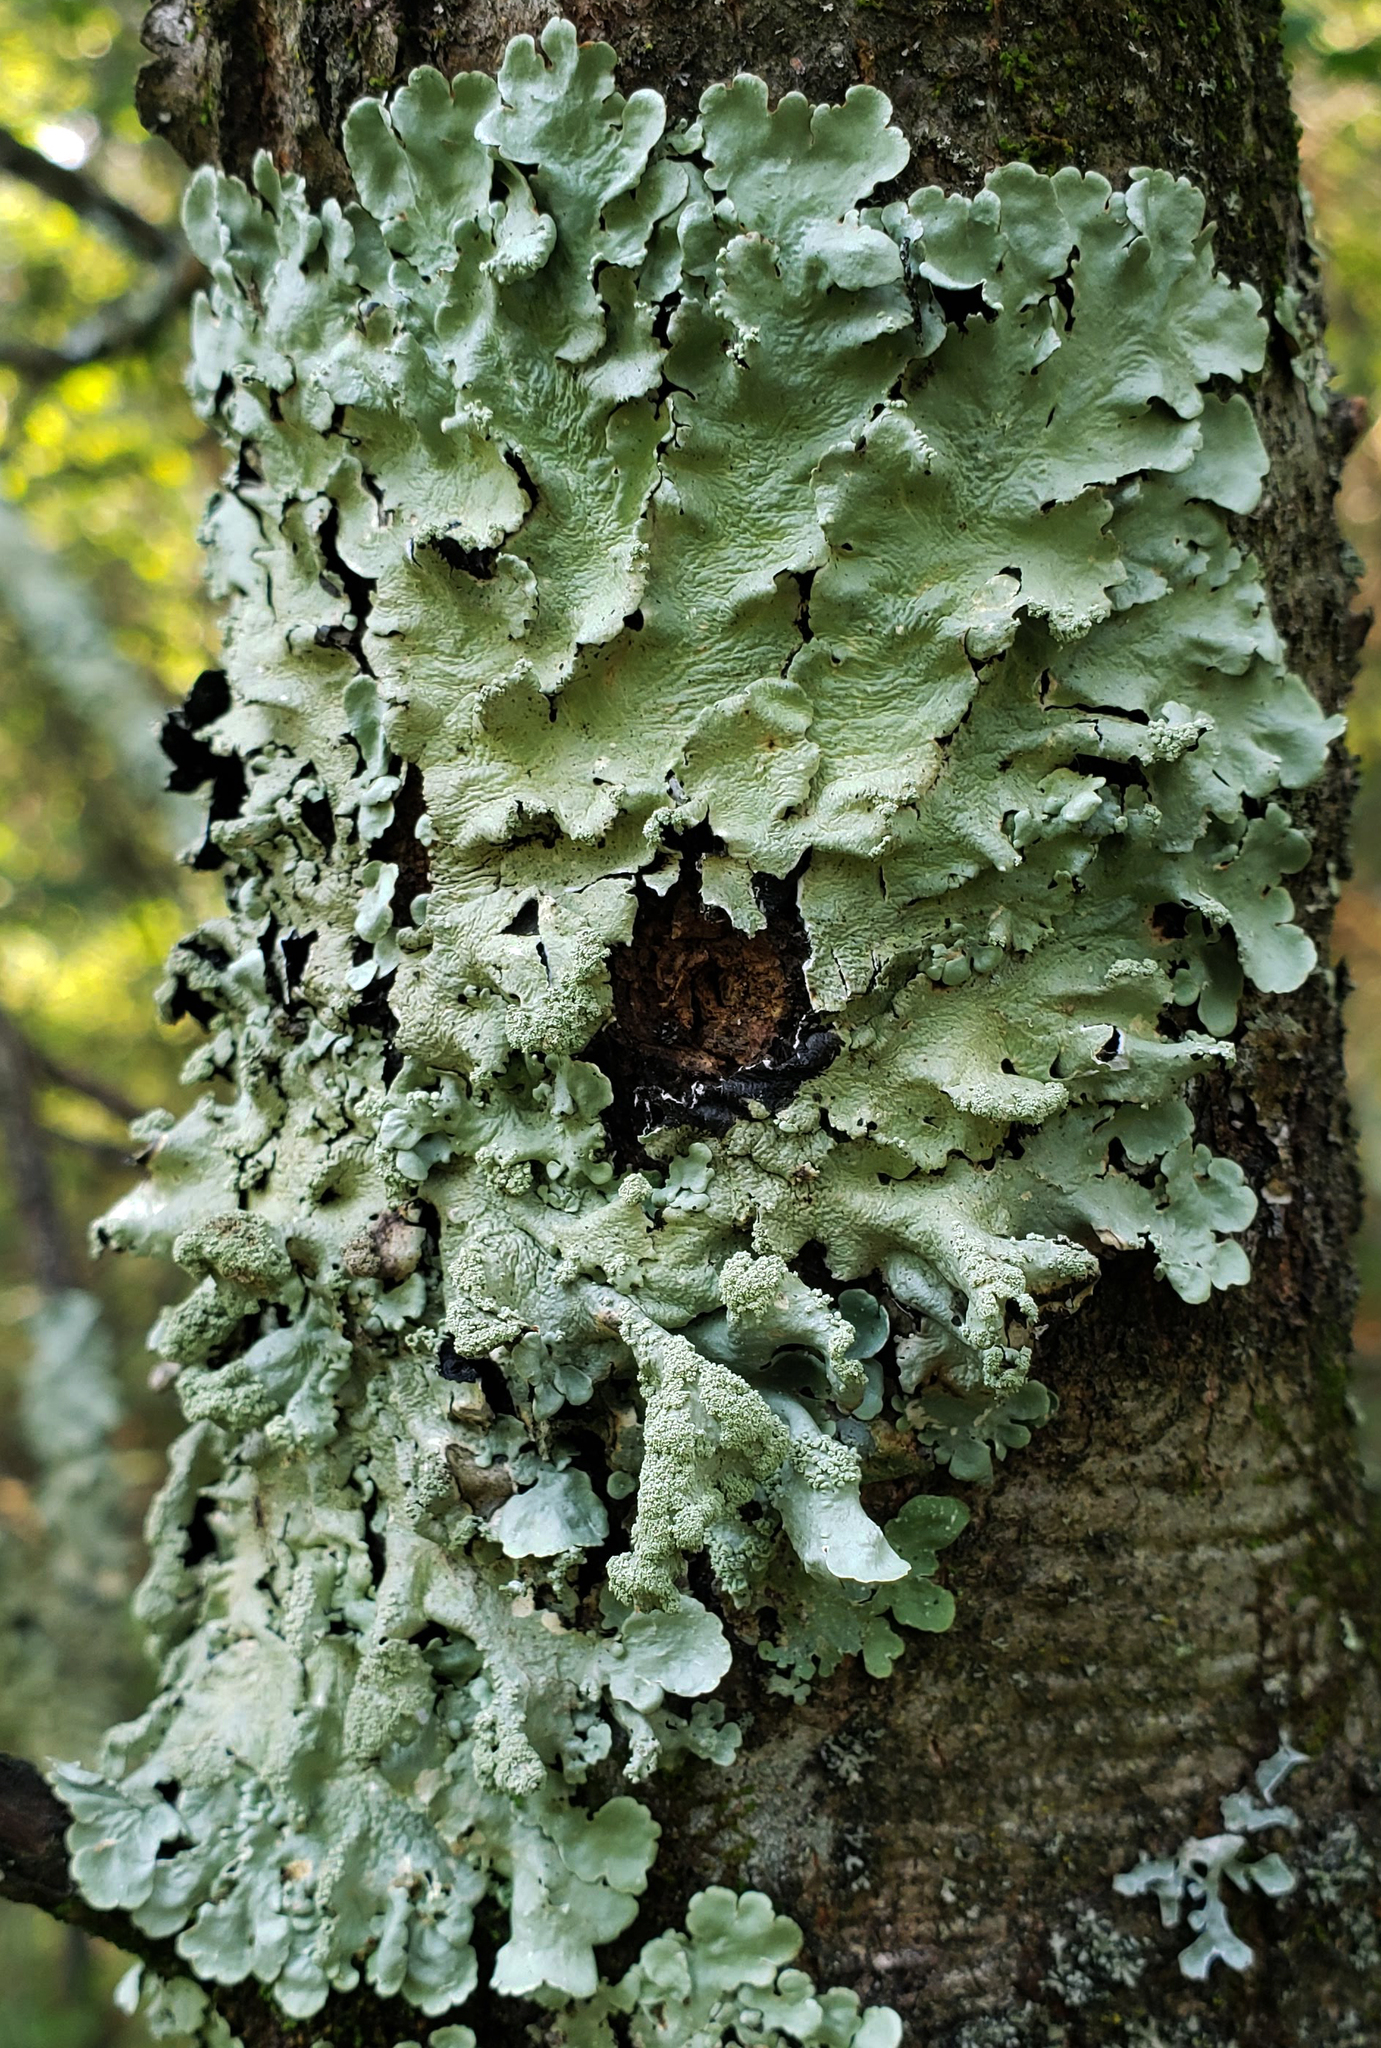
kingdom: Fungi
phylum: Ascomycota
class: Lecanoromycetes
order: Lecanorales
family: Parmeliaceae
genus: Flavoparmelia
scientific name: Flavoparmelia caperata
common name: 40-mile per hour lichen
